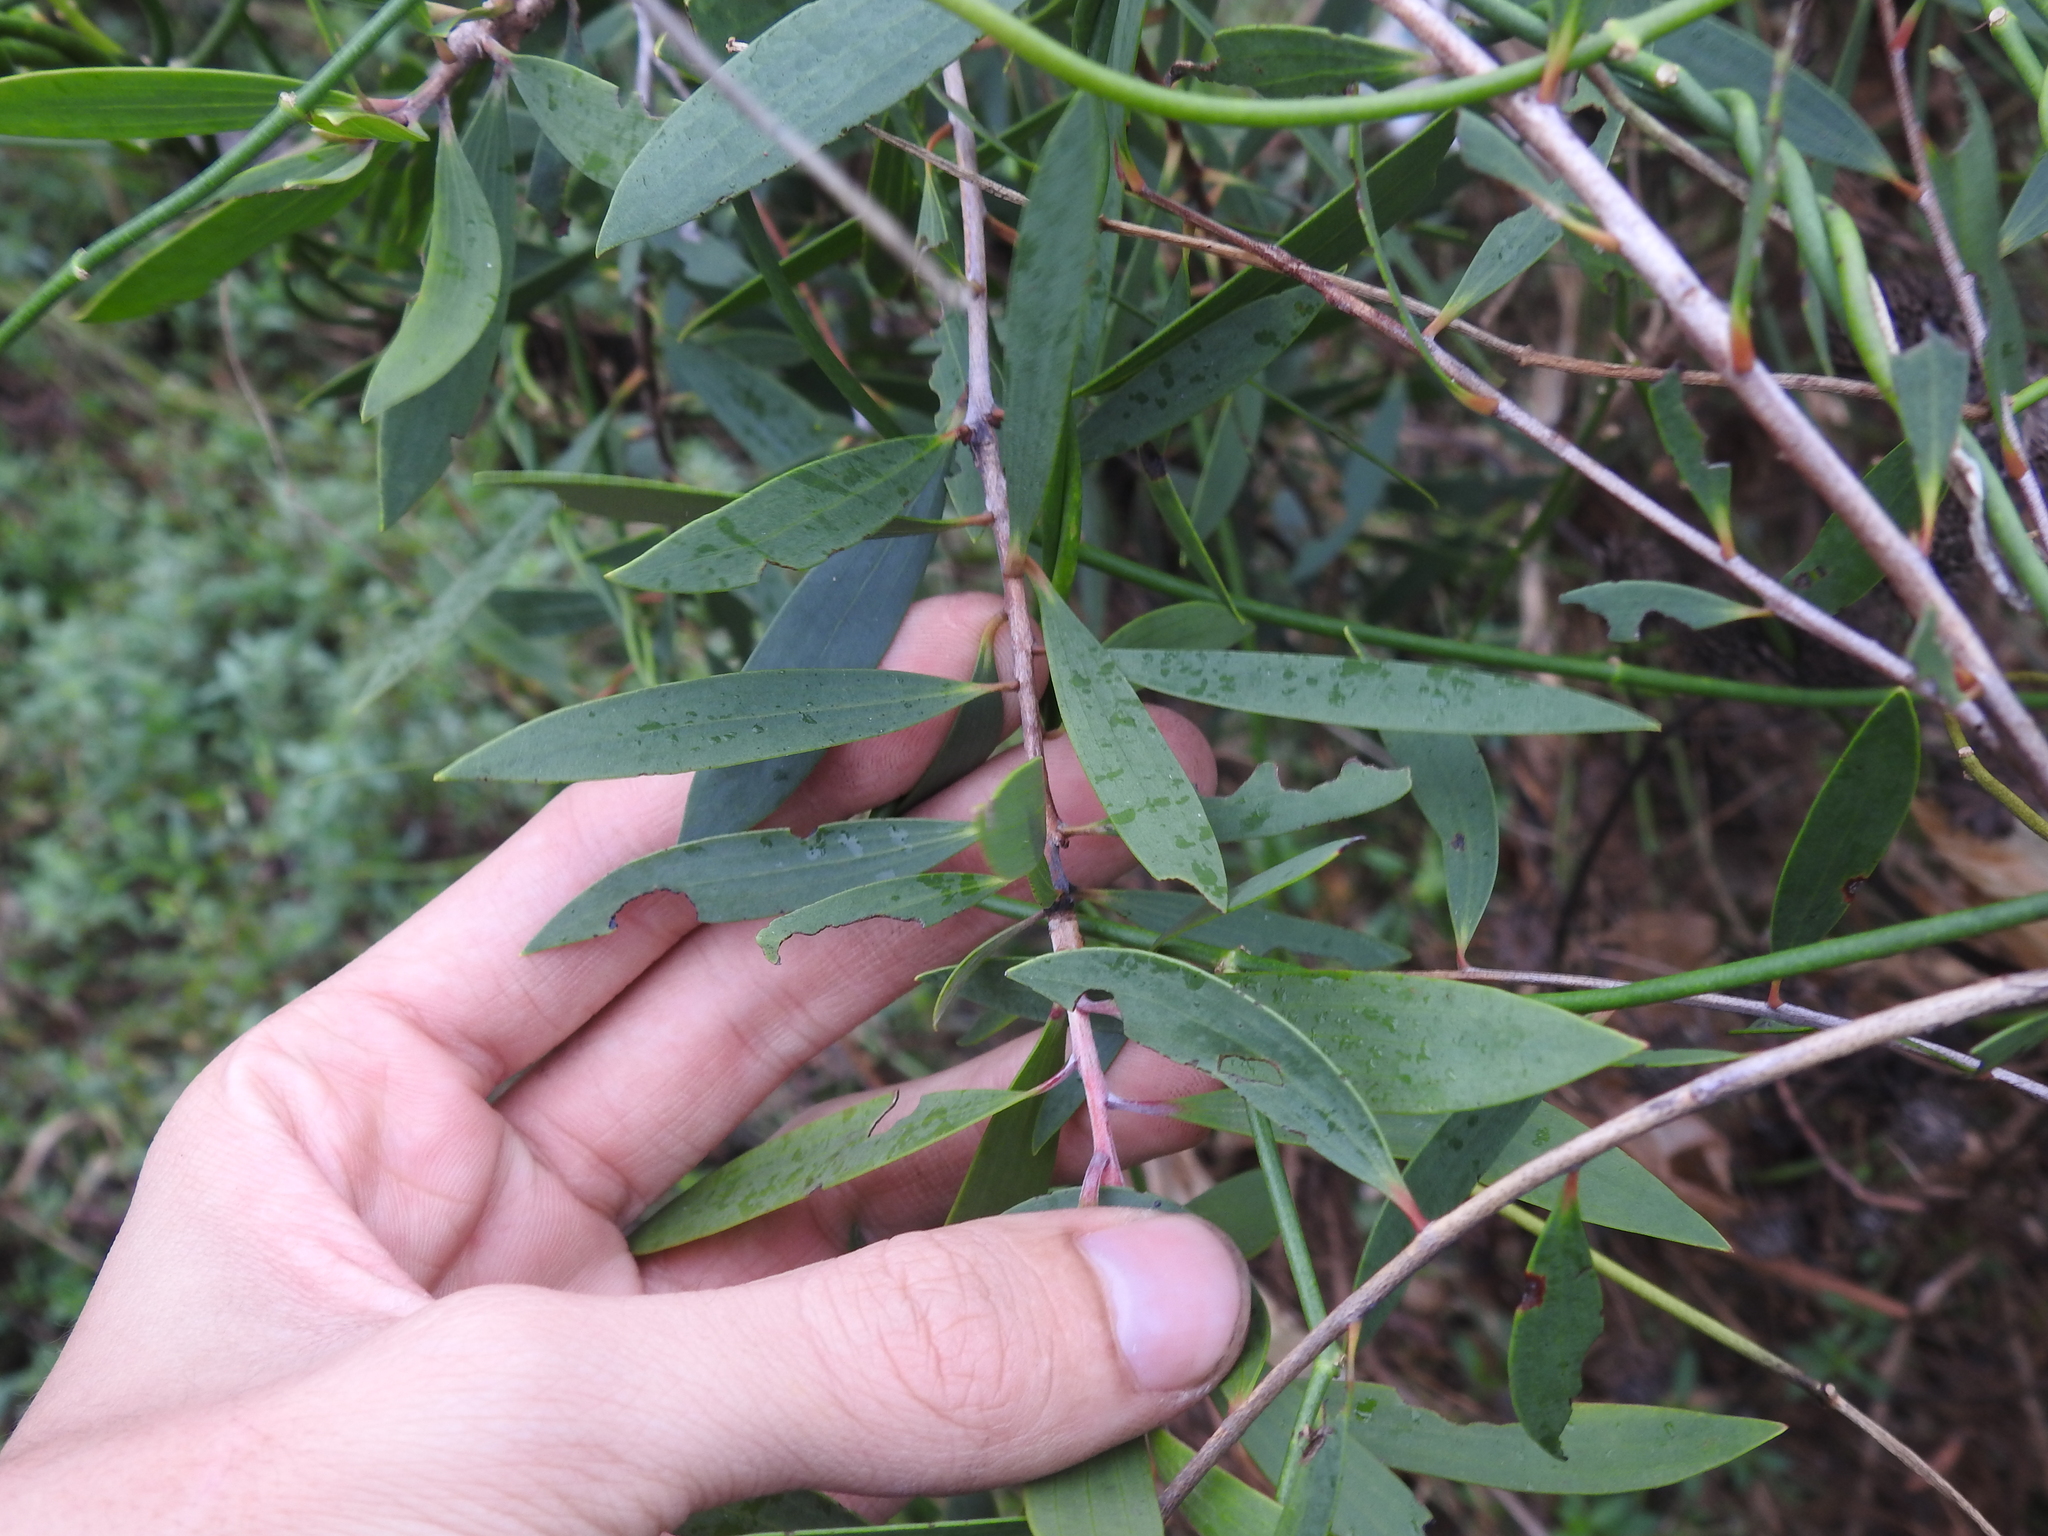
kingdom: Plantae
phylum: Tracheophyta
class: Magnoliopsida
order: Myrtales
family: Myrtaceae
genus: Melaleuca
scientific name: Melaleuca quinquenervia
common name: Punktree
